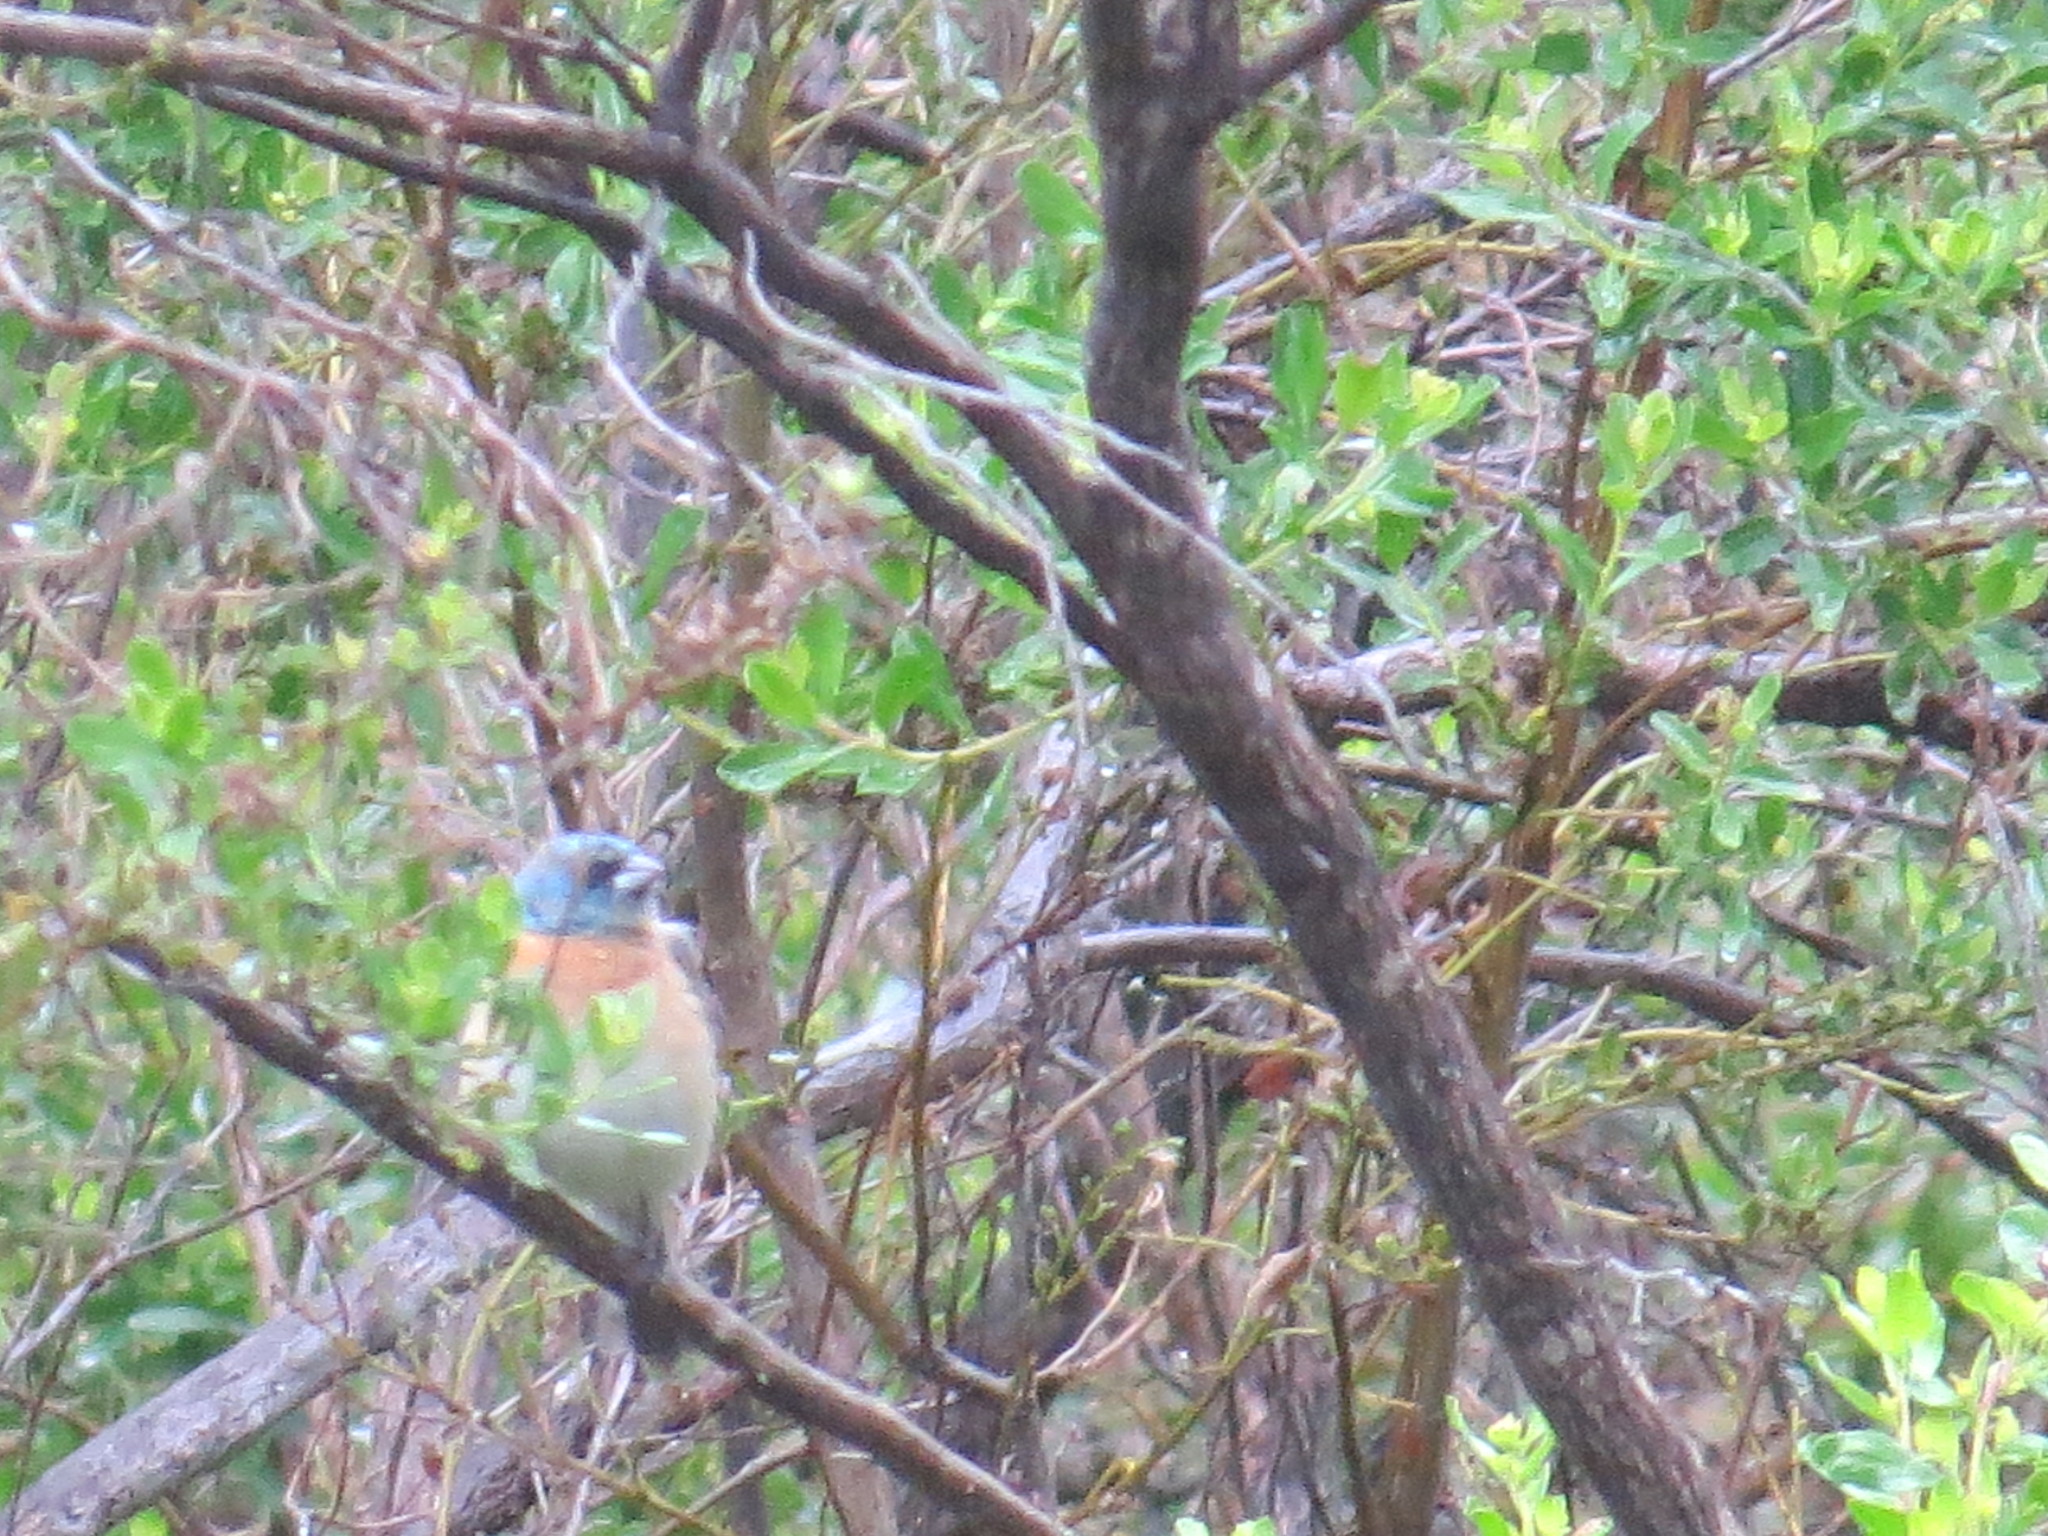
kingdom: Animalia
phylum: Chordata
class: Aves
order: Passeriformes
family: Cardinalidae
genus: Passerina
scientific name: Passerina amoena
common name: Lazuli bunting
